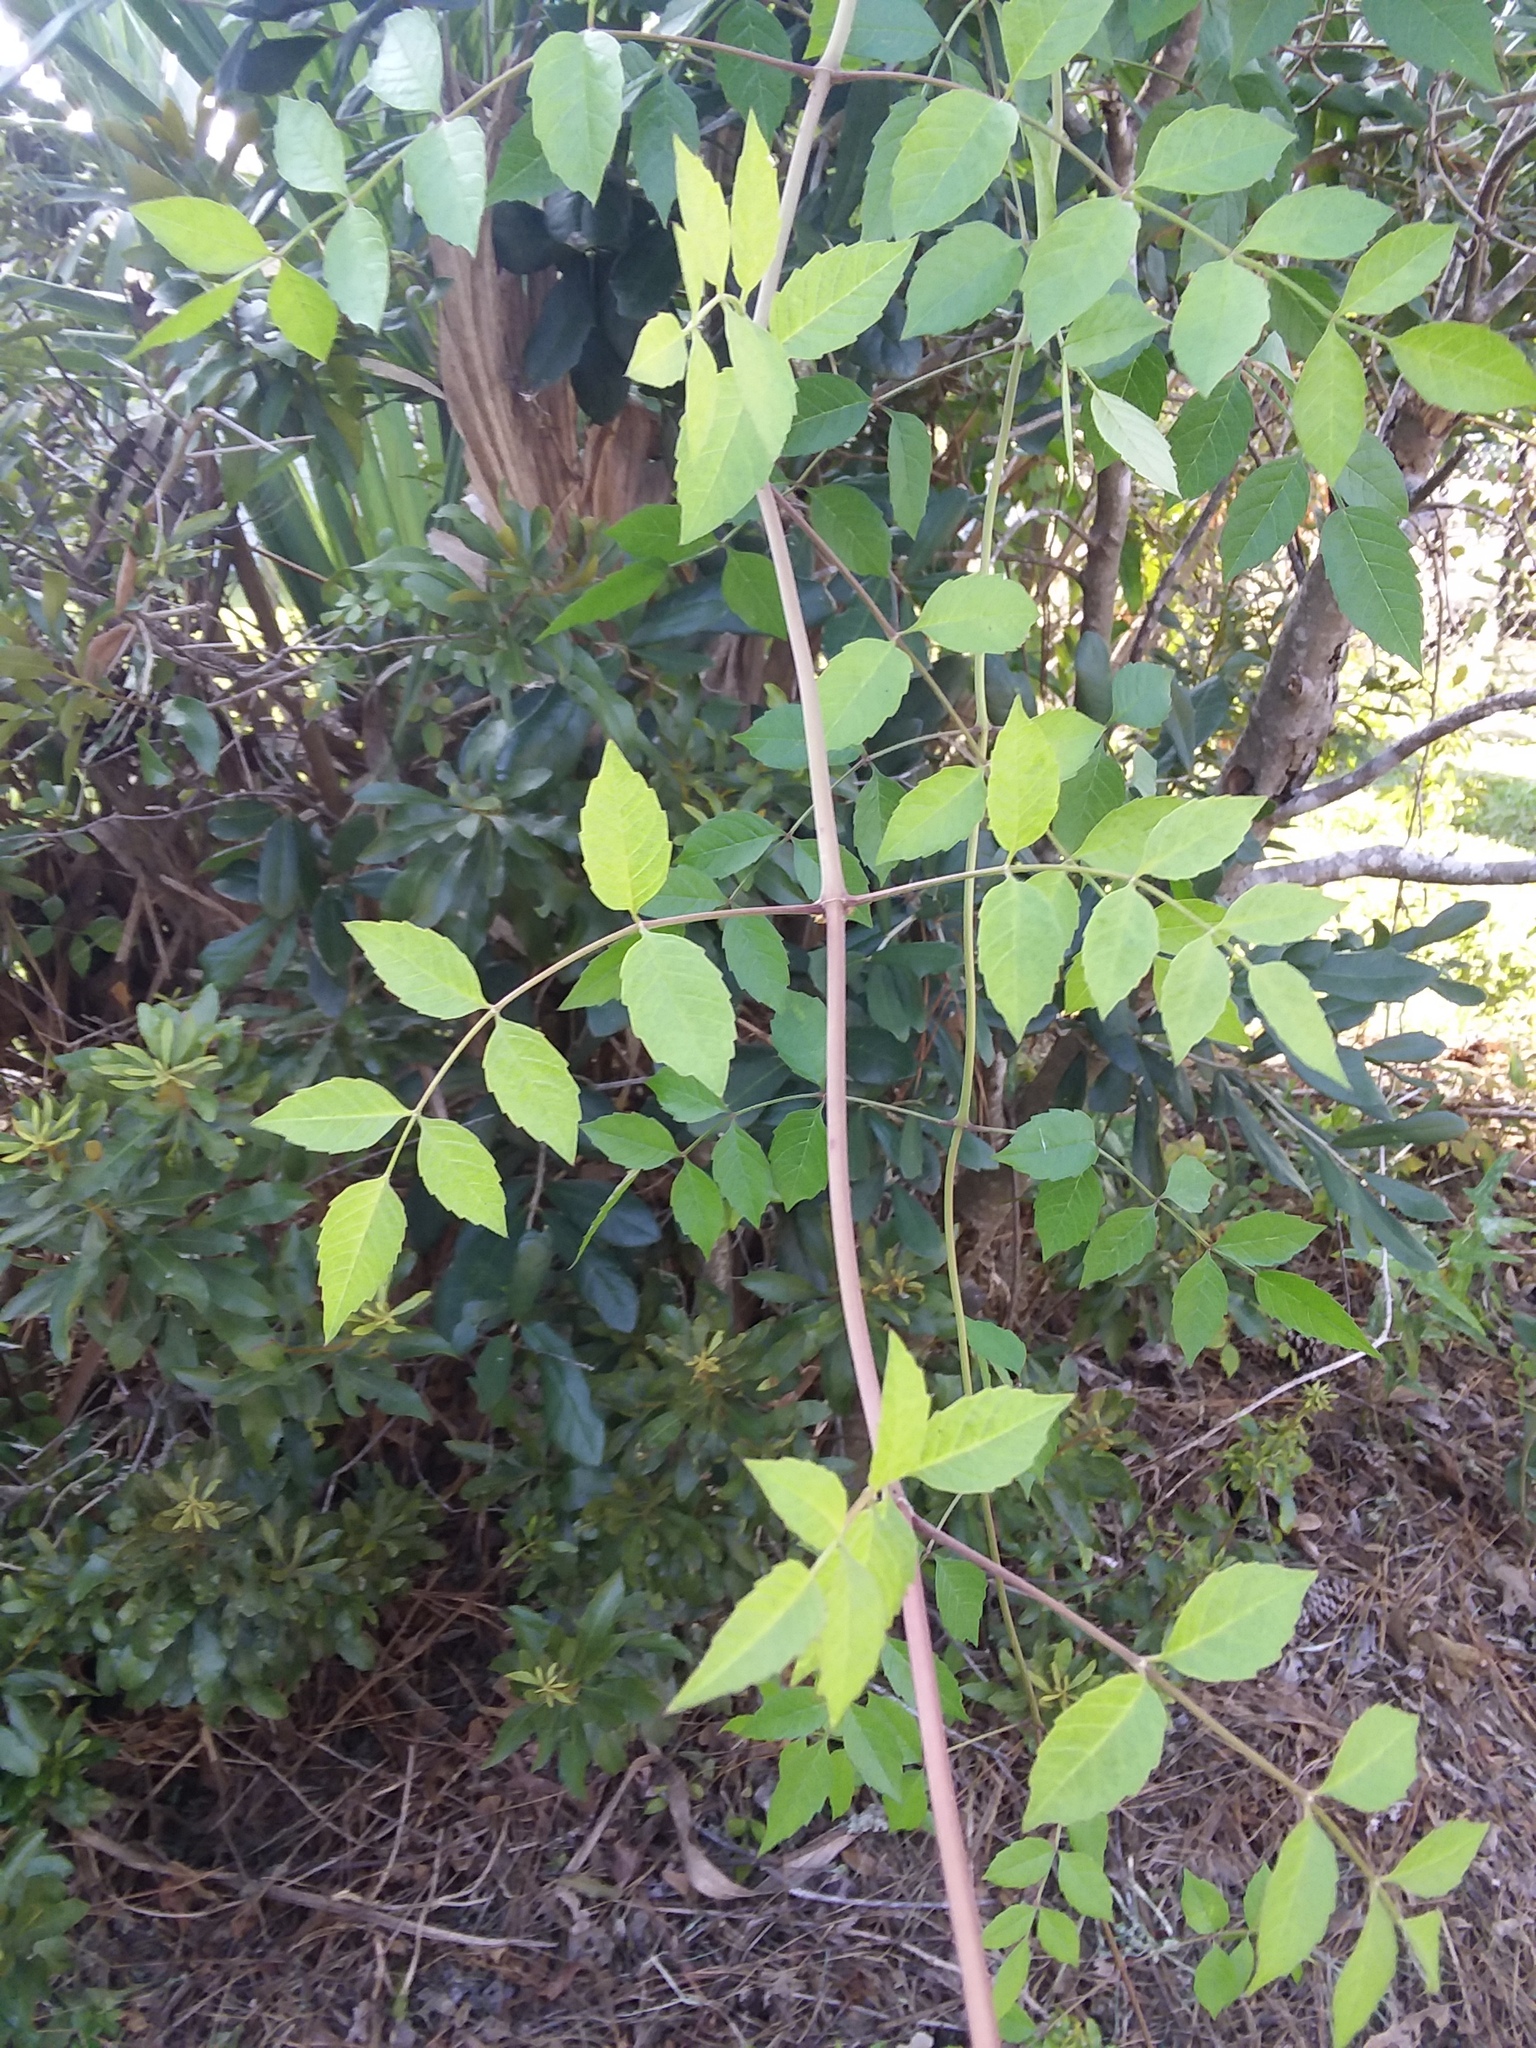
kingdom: Plantae
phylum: Tracheophyta
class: Magnoliopsida
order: Lamiales
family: Bignoniaceae
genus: Campsis
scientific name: Campsis radicans
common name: Trumpet-creeper
